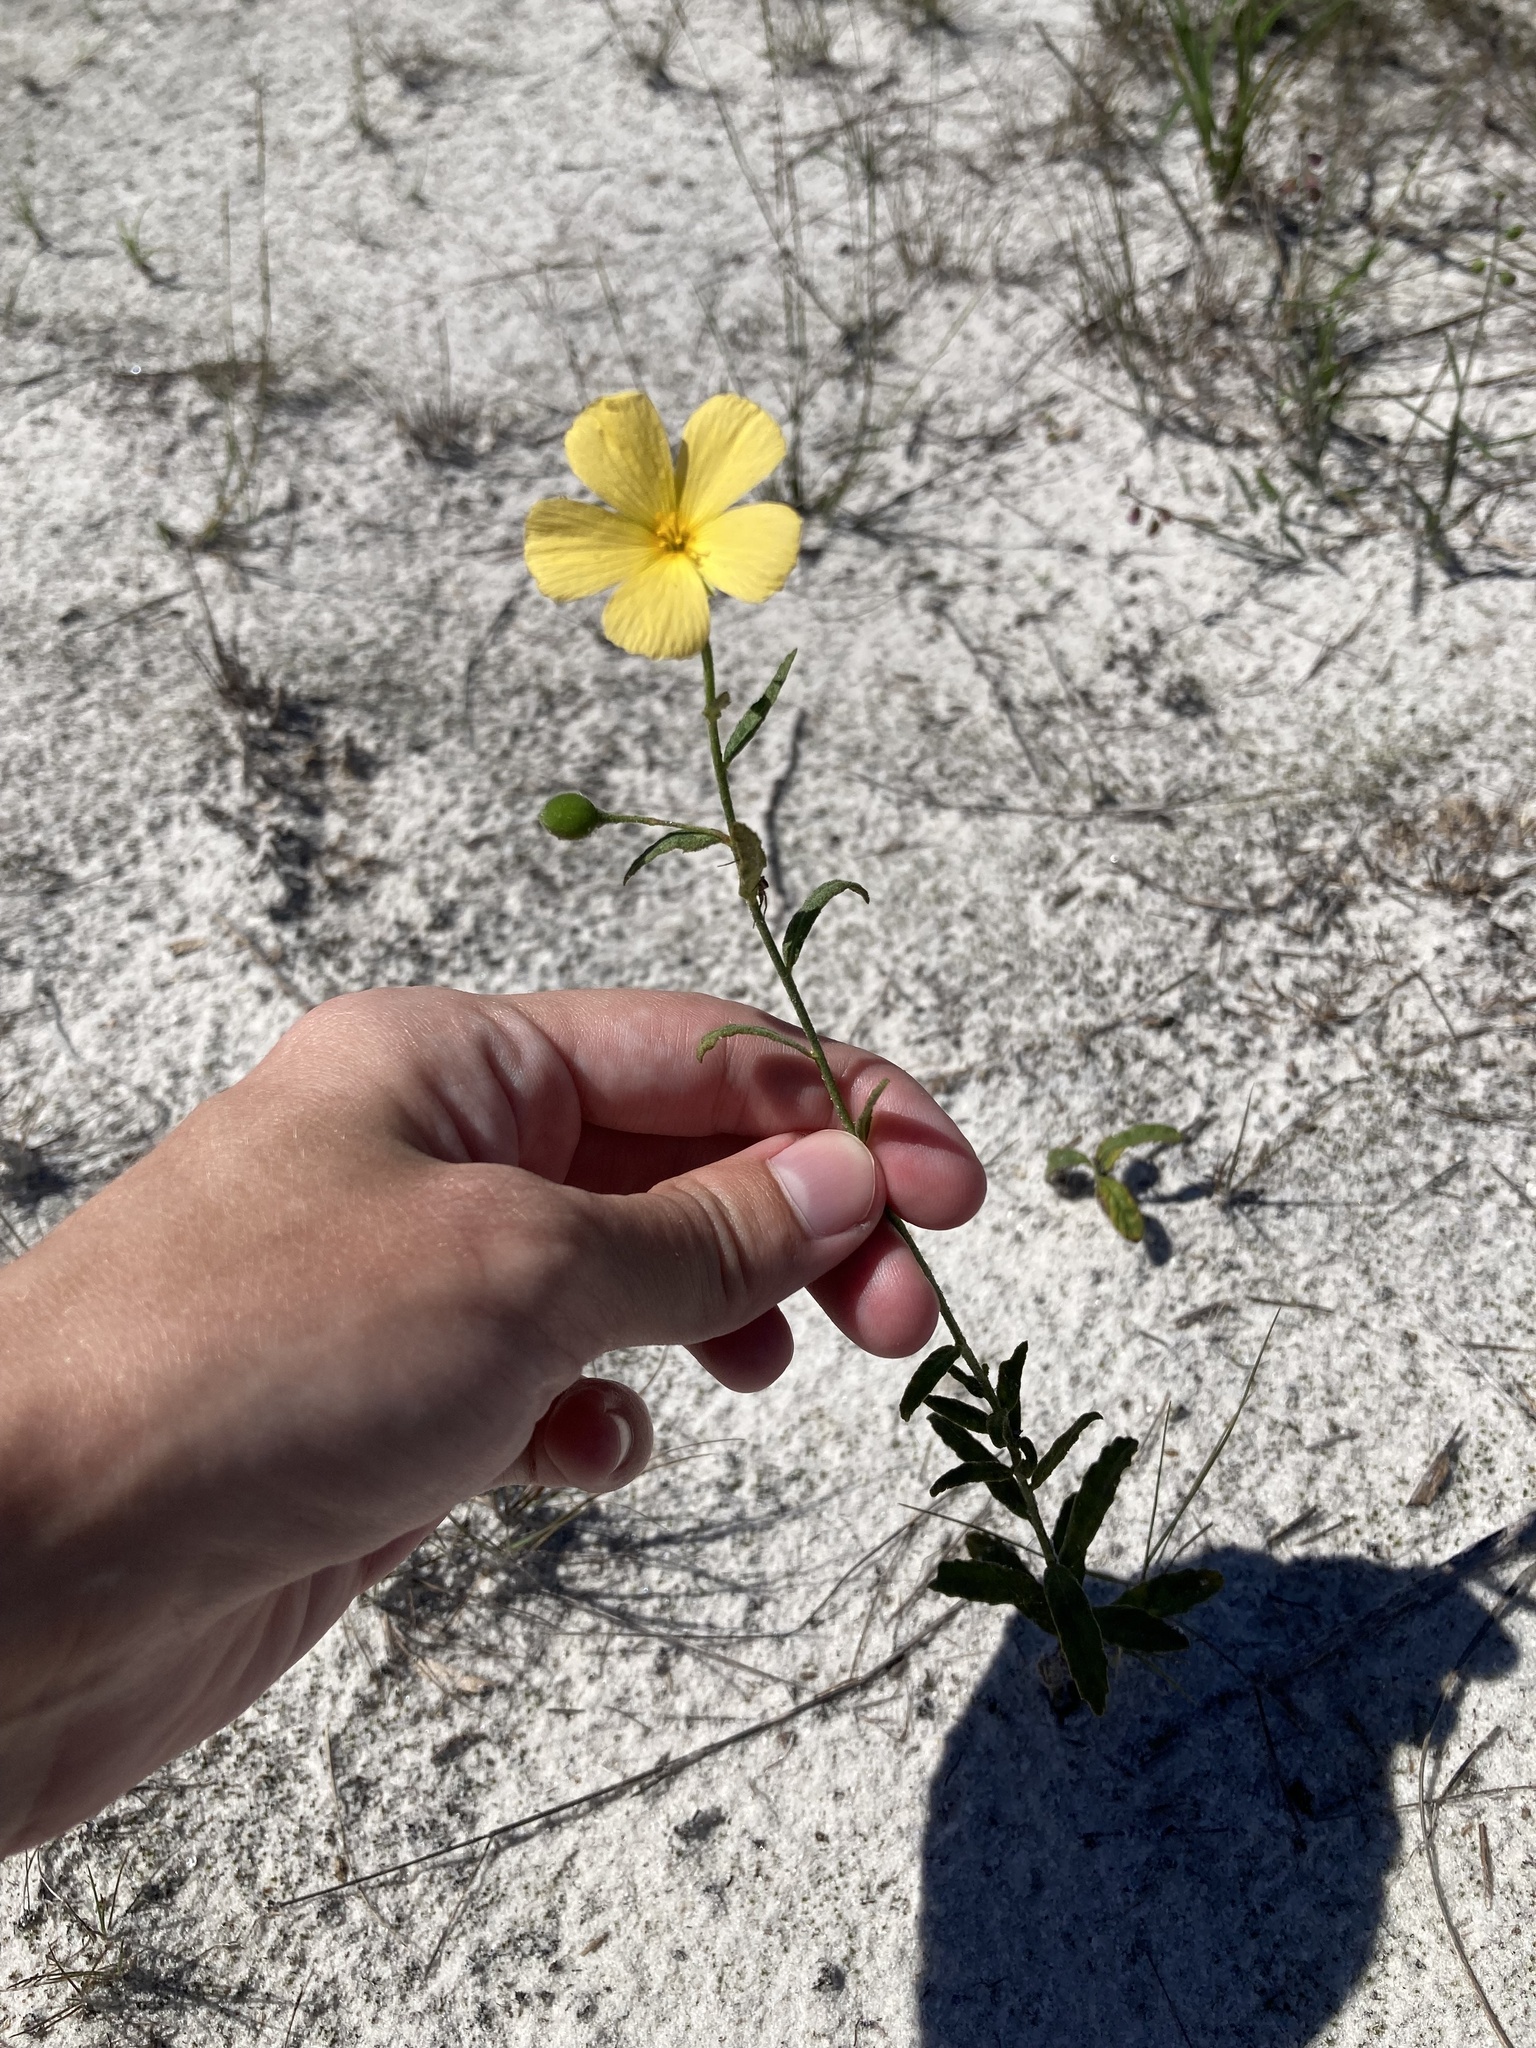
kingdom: Plantae
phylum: Tracheophyta
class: Magnoliopsida
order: Malpighiales
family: Turneraceae
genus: Piriqueta
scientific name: Piriqueta cistoides
